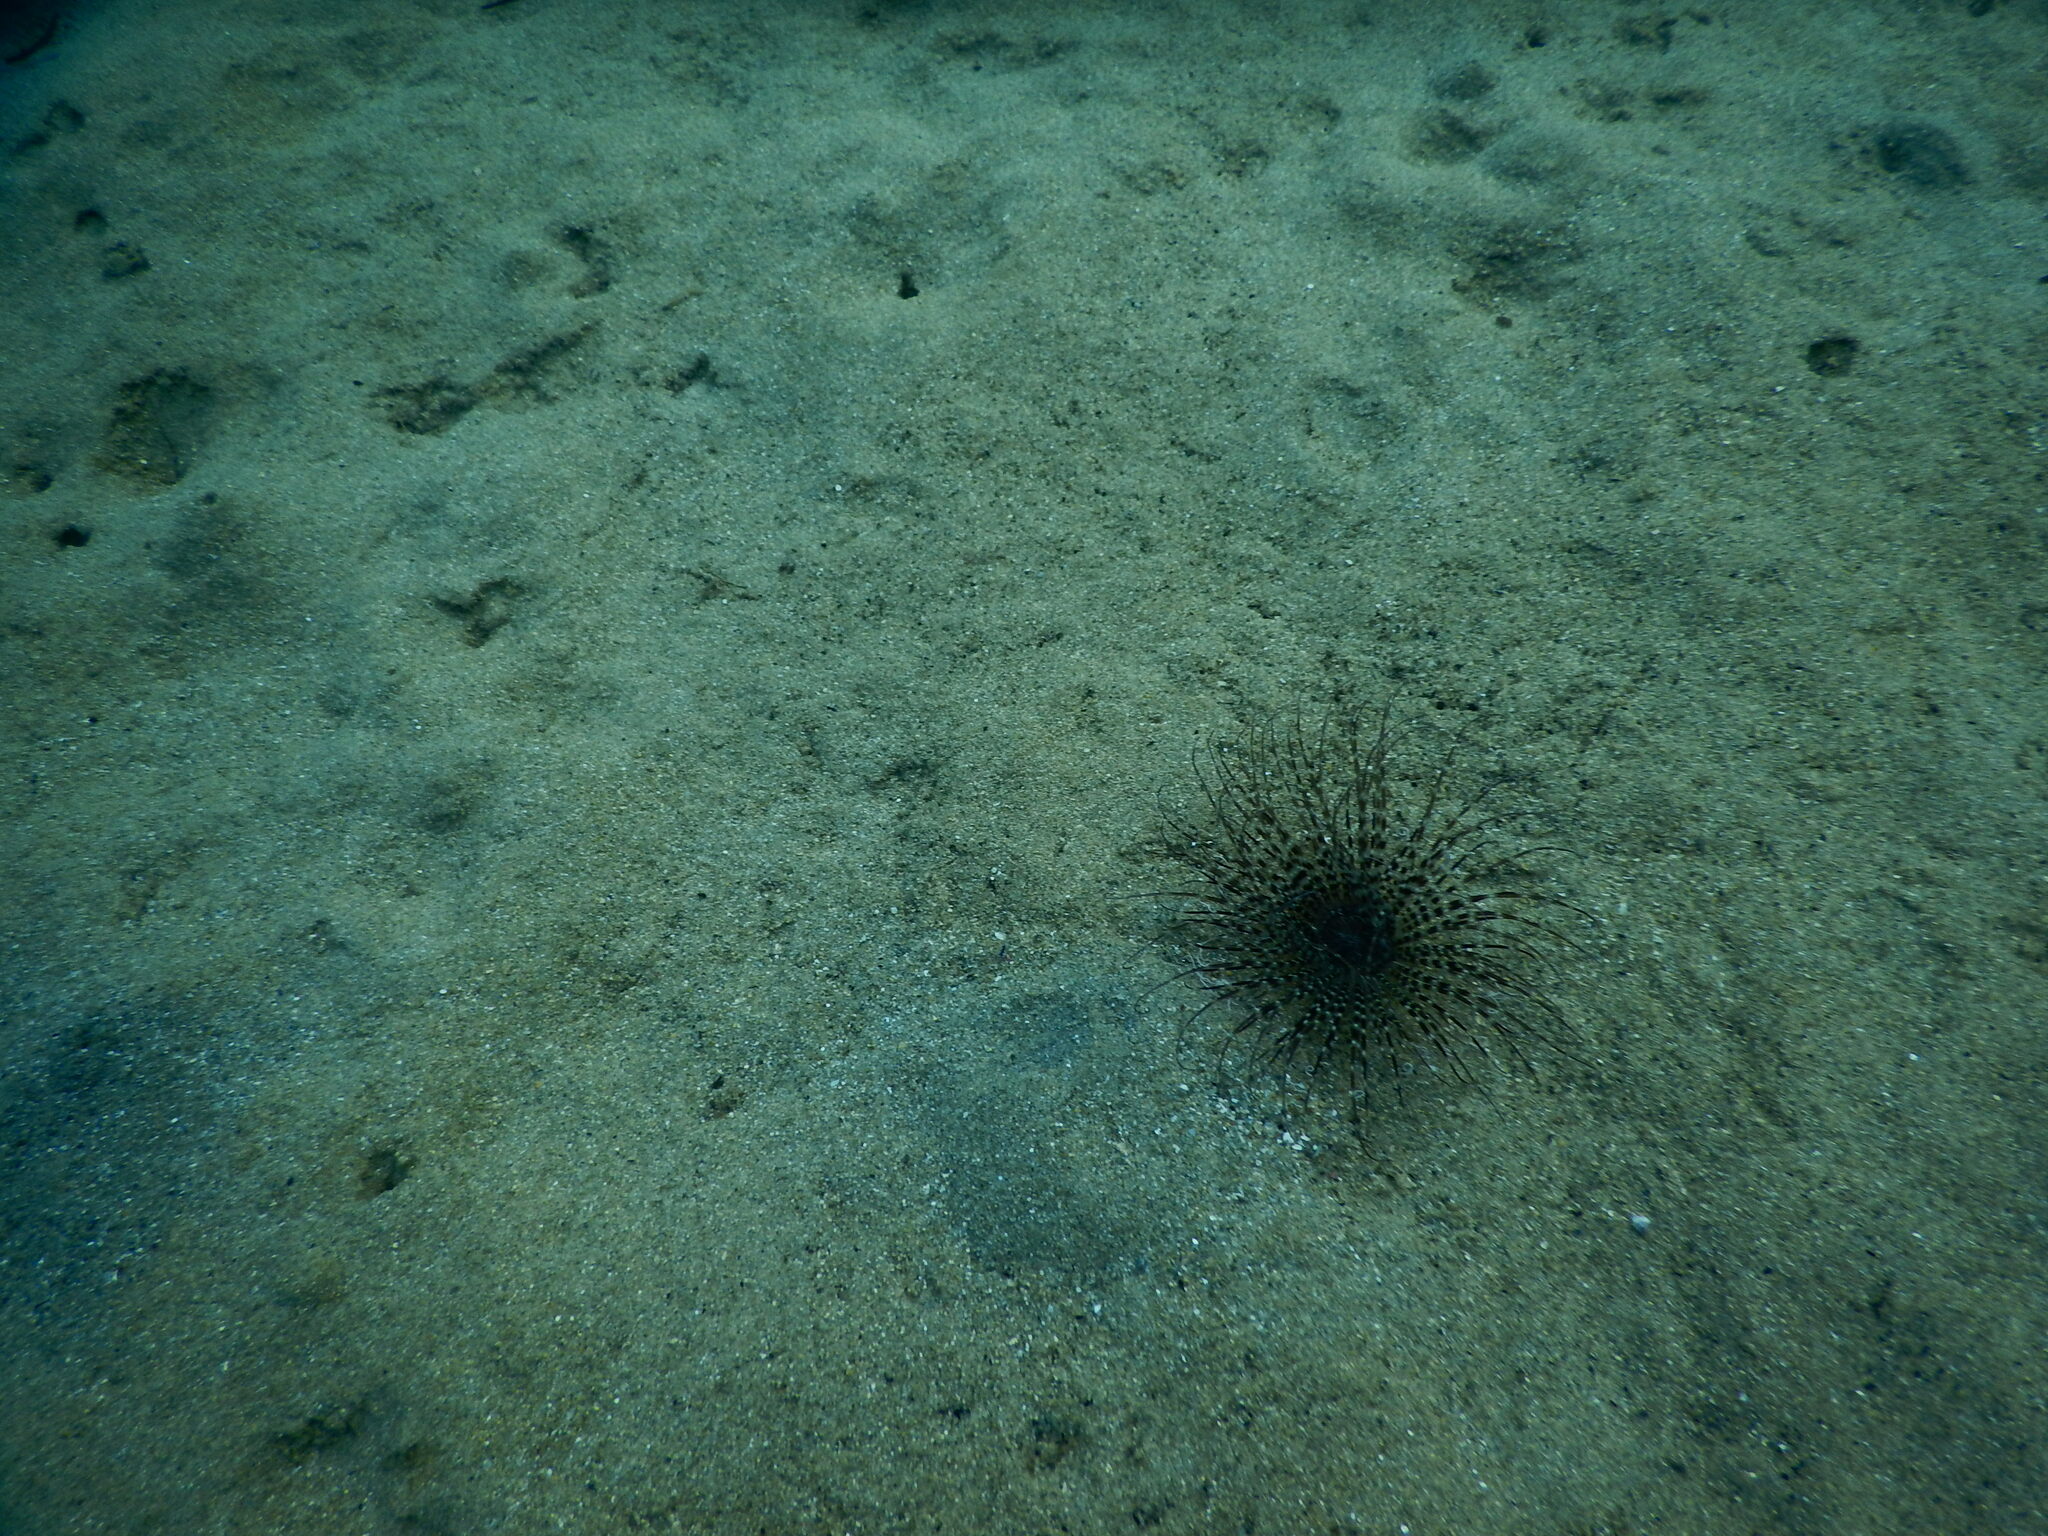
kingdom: Animalia
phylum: Cnidaria
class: Anthozoa
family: Cerianthidae
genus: Pachycerianthus
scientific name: Pachycerianthus solitarius
